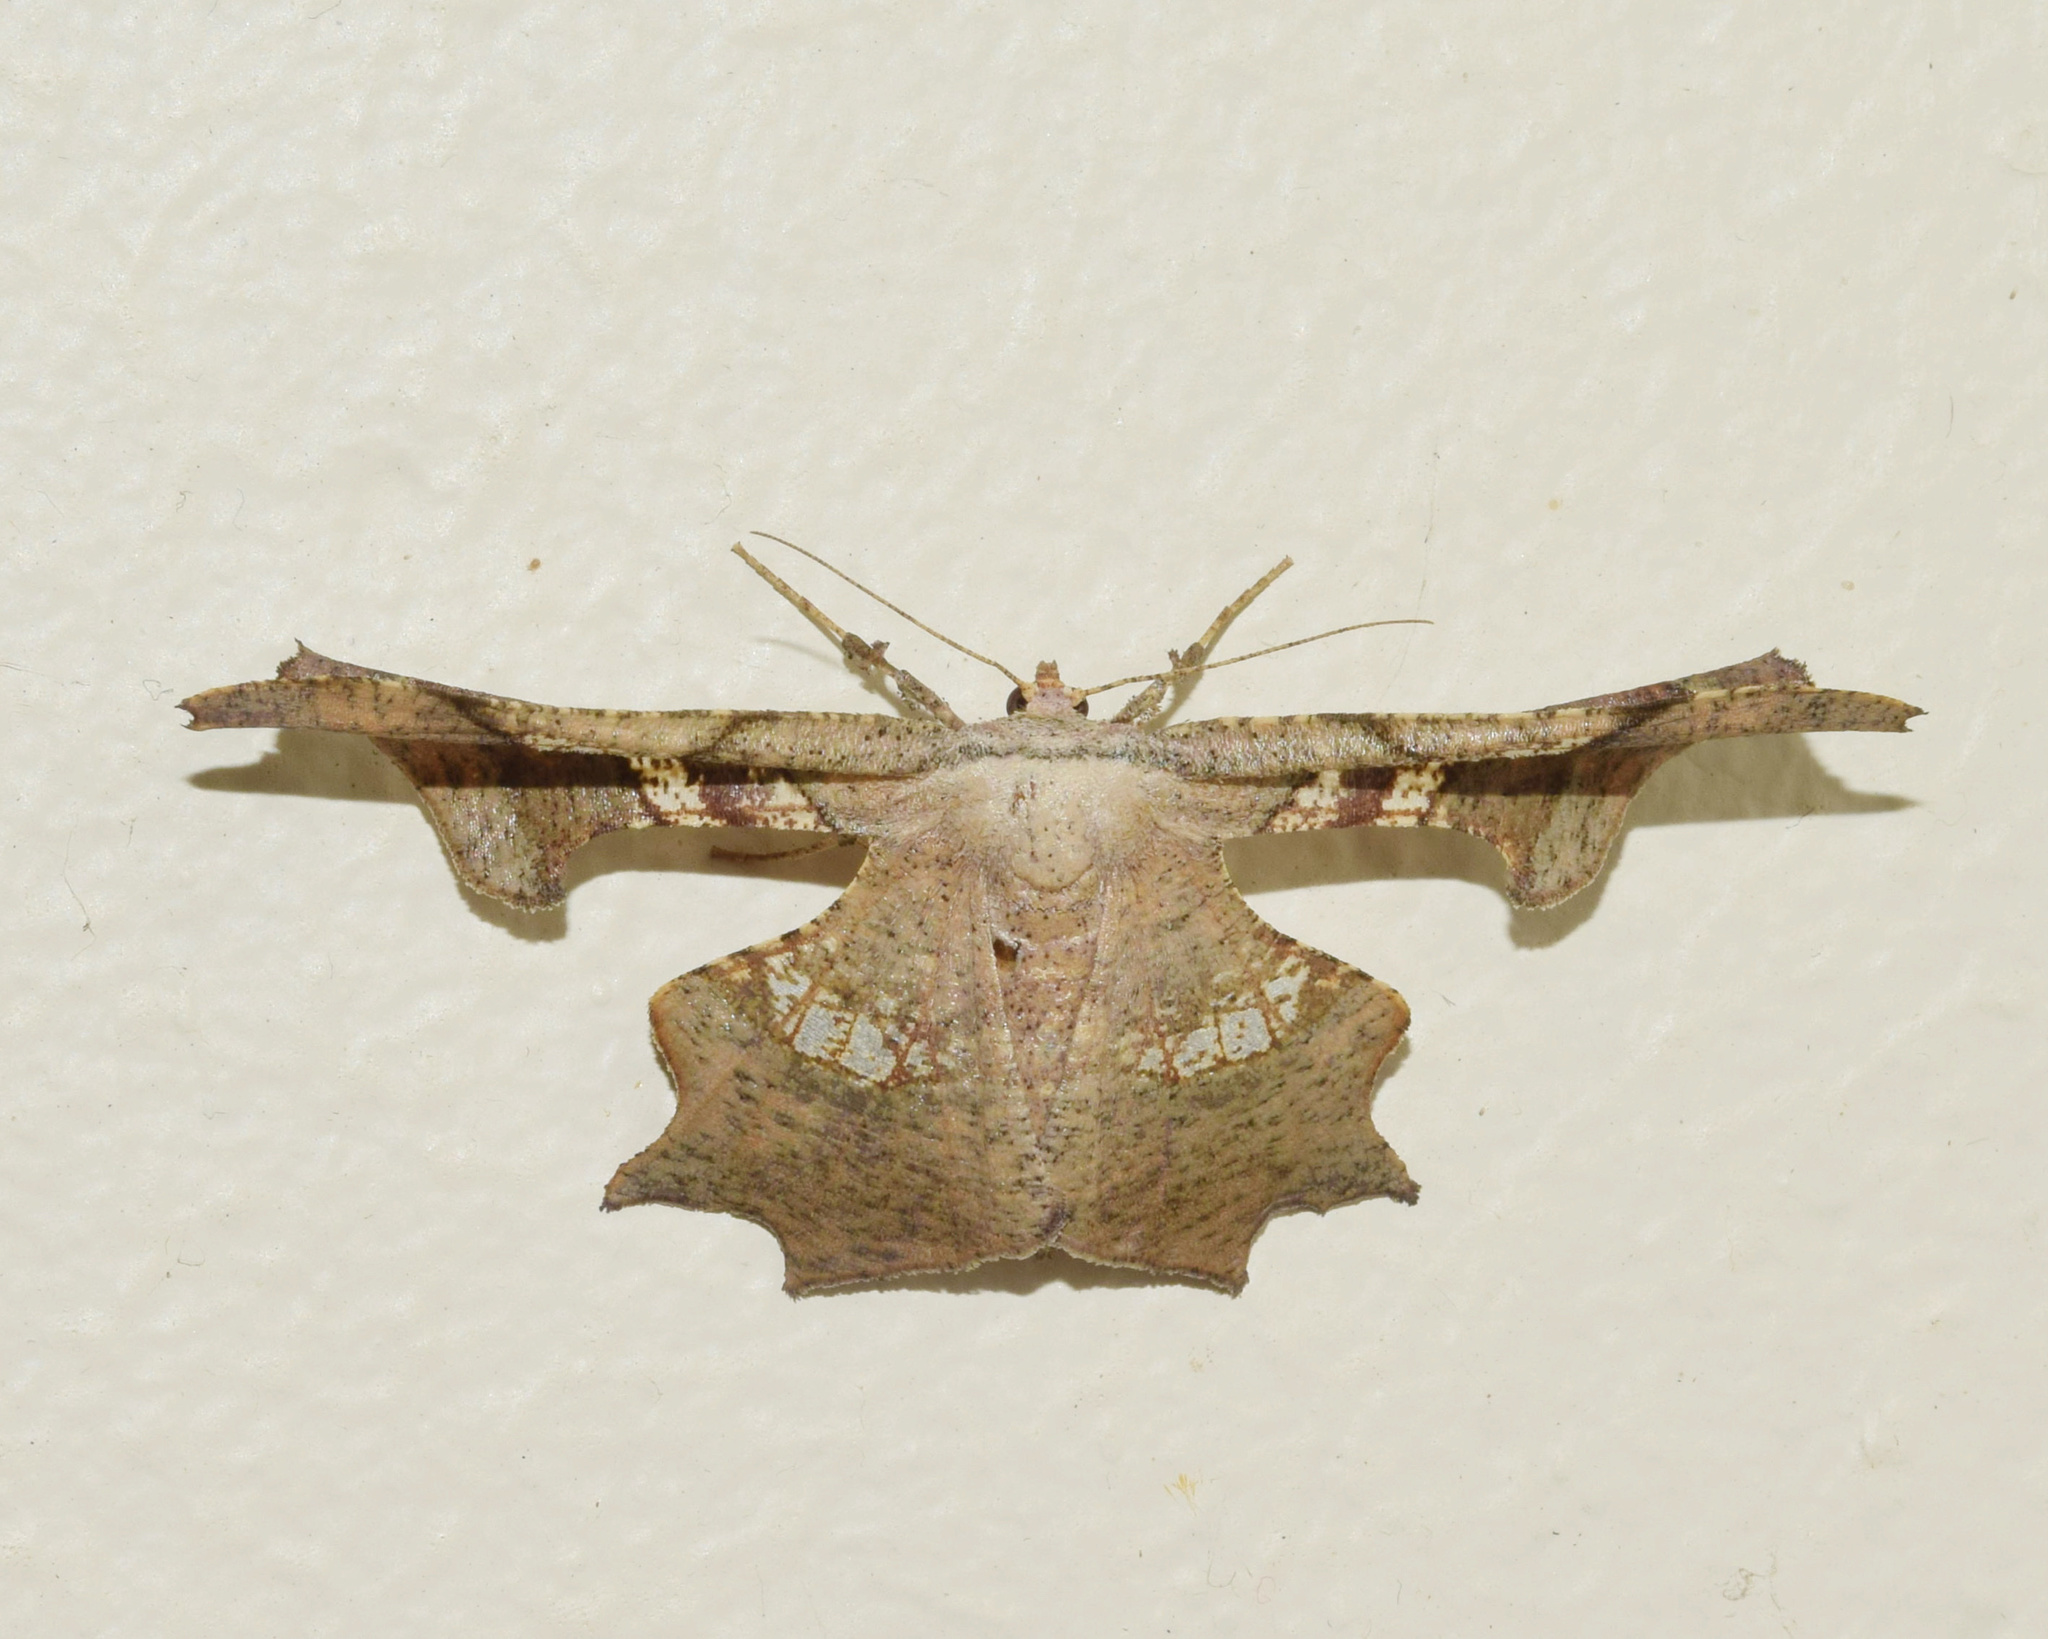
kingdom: Animalia
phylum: Arthropoda
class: Insecta
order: Lepidoptera
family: Geometridae
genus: Xenimpia
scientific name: Xenimpia erosa
